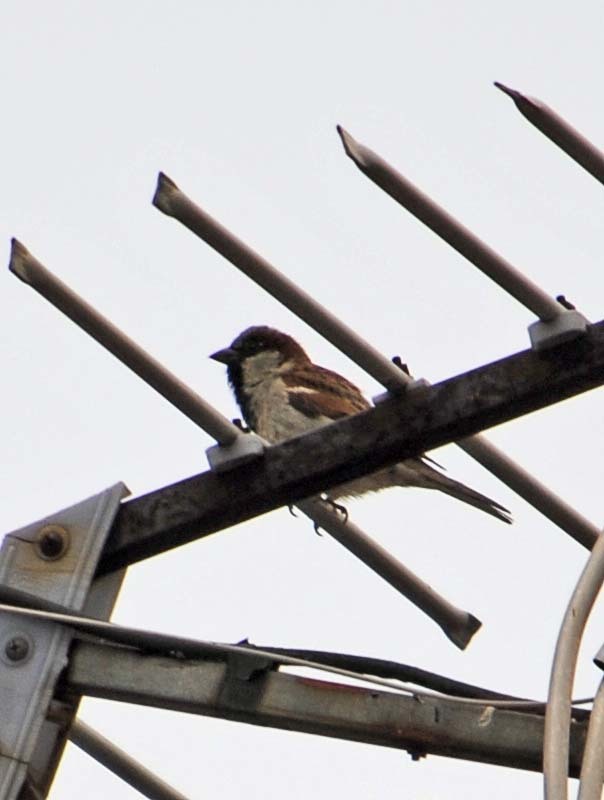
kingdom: Animalia
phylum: Chordata
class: Aves
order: Passeriformes
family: Passeridae
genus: Passer
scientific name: Passer domesticus
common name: House sparrow
